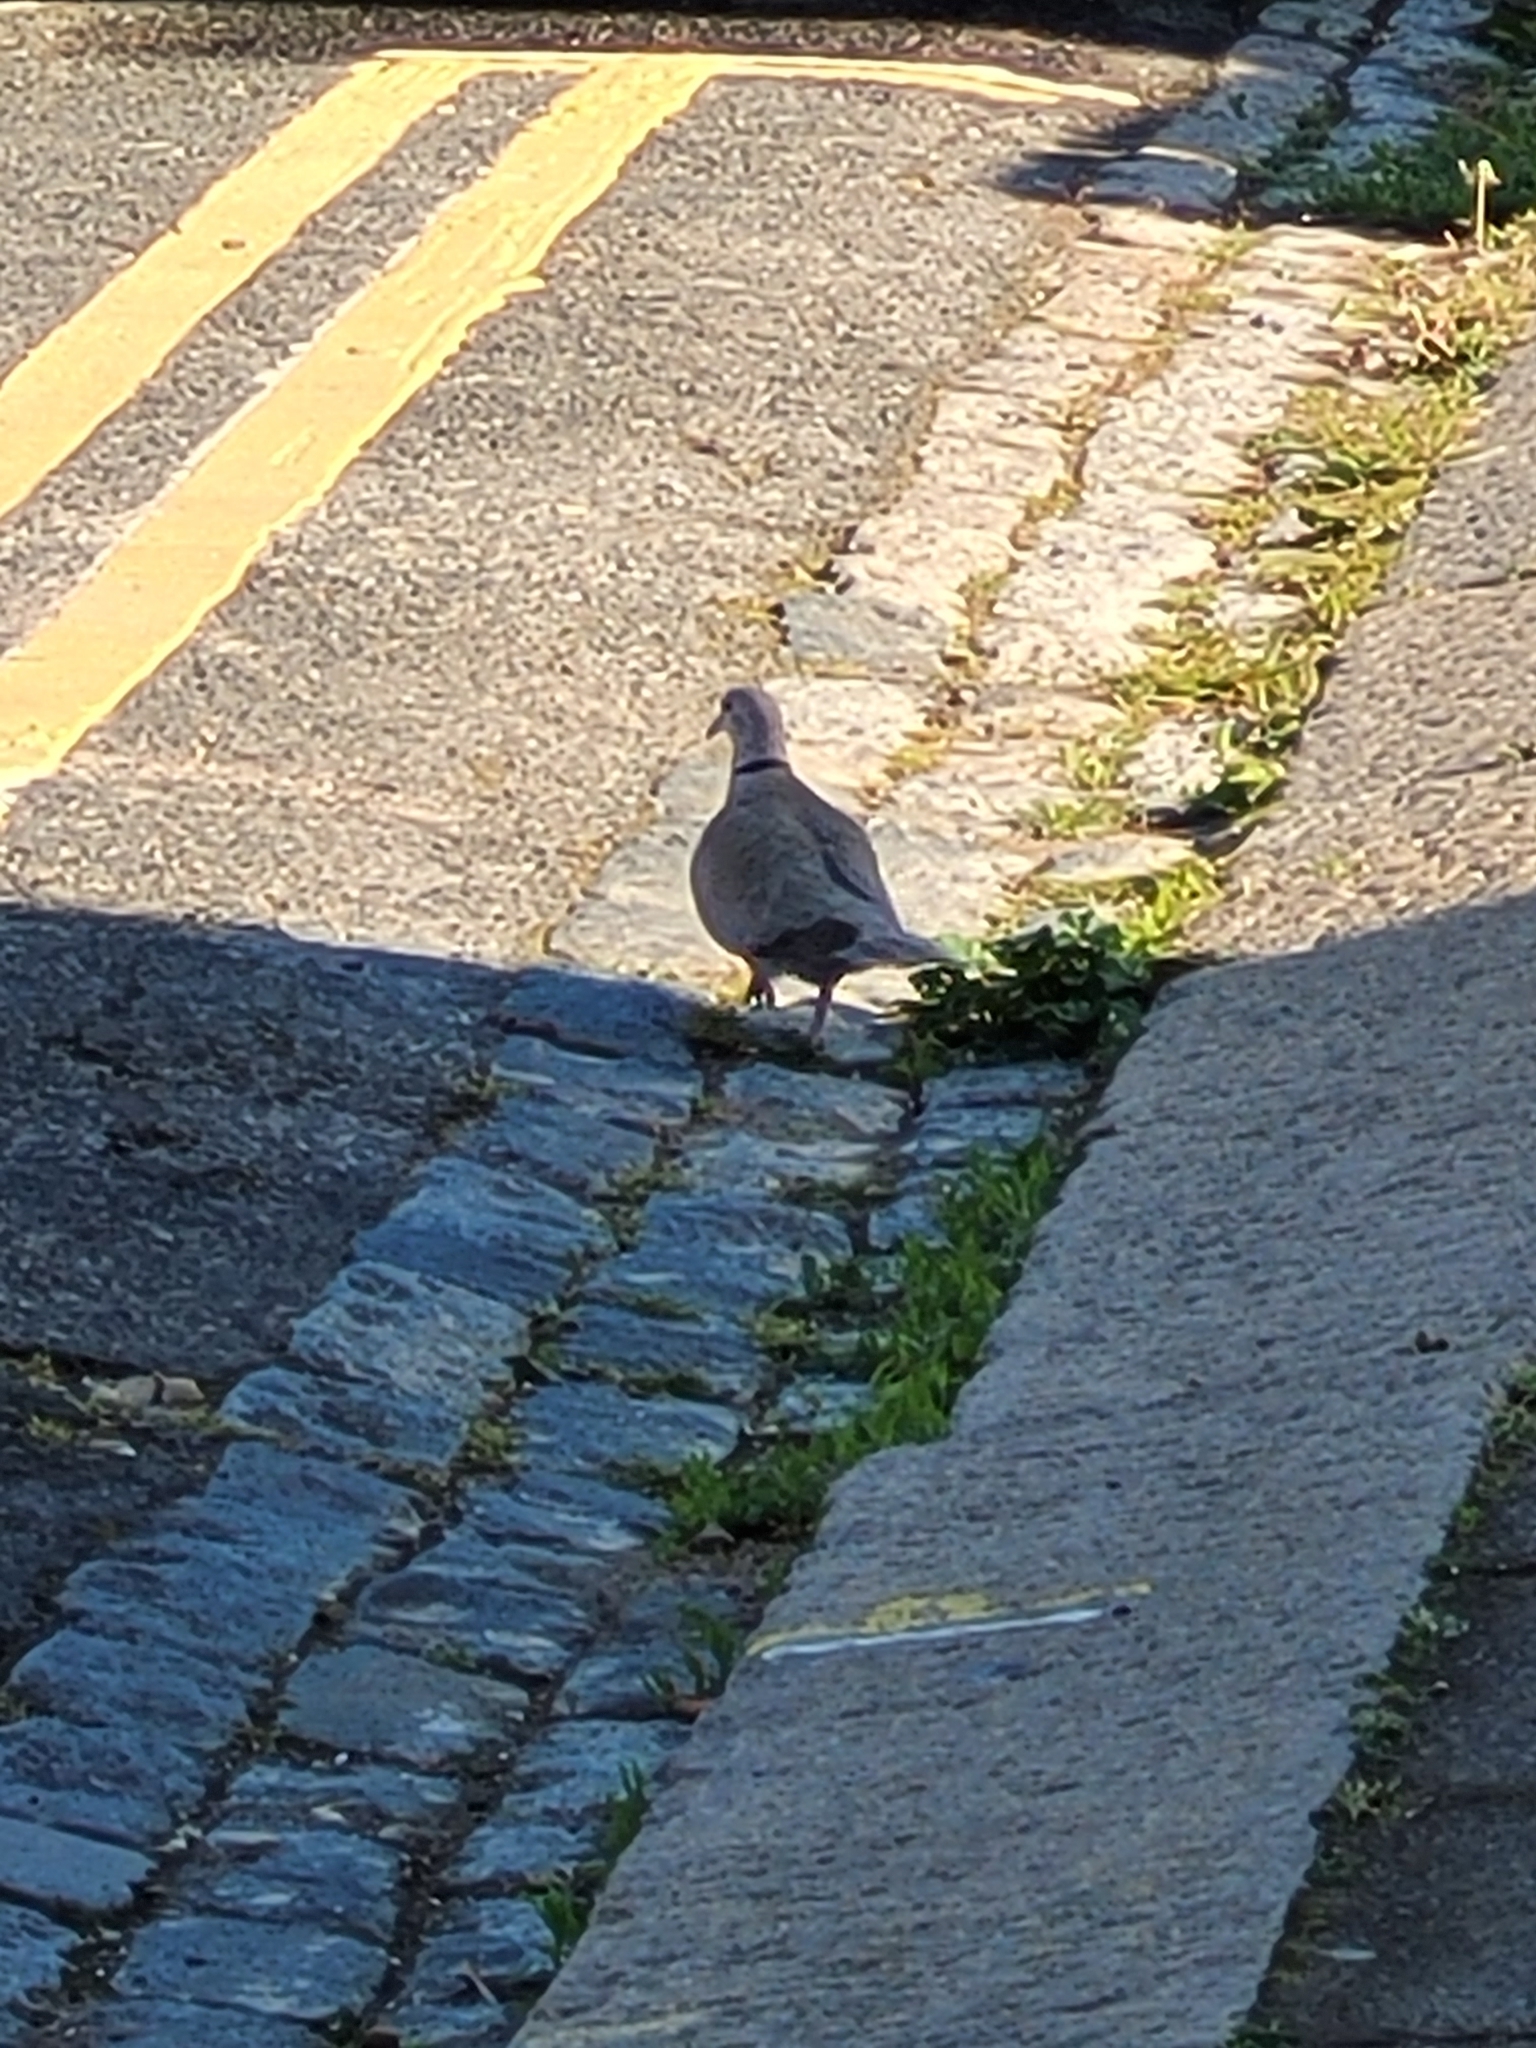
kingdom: Animalia
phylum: Chordata
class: Aves
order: Columbiformes
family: Columbidae
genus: Streptopelia
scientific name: Streptopelia decaocto
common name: Eurasian collared dove
